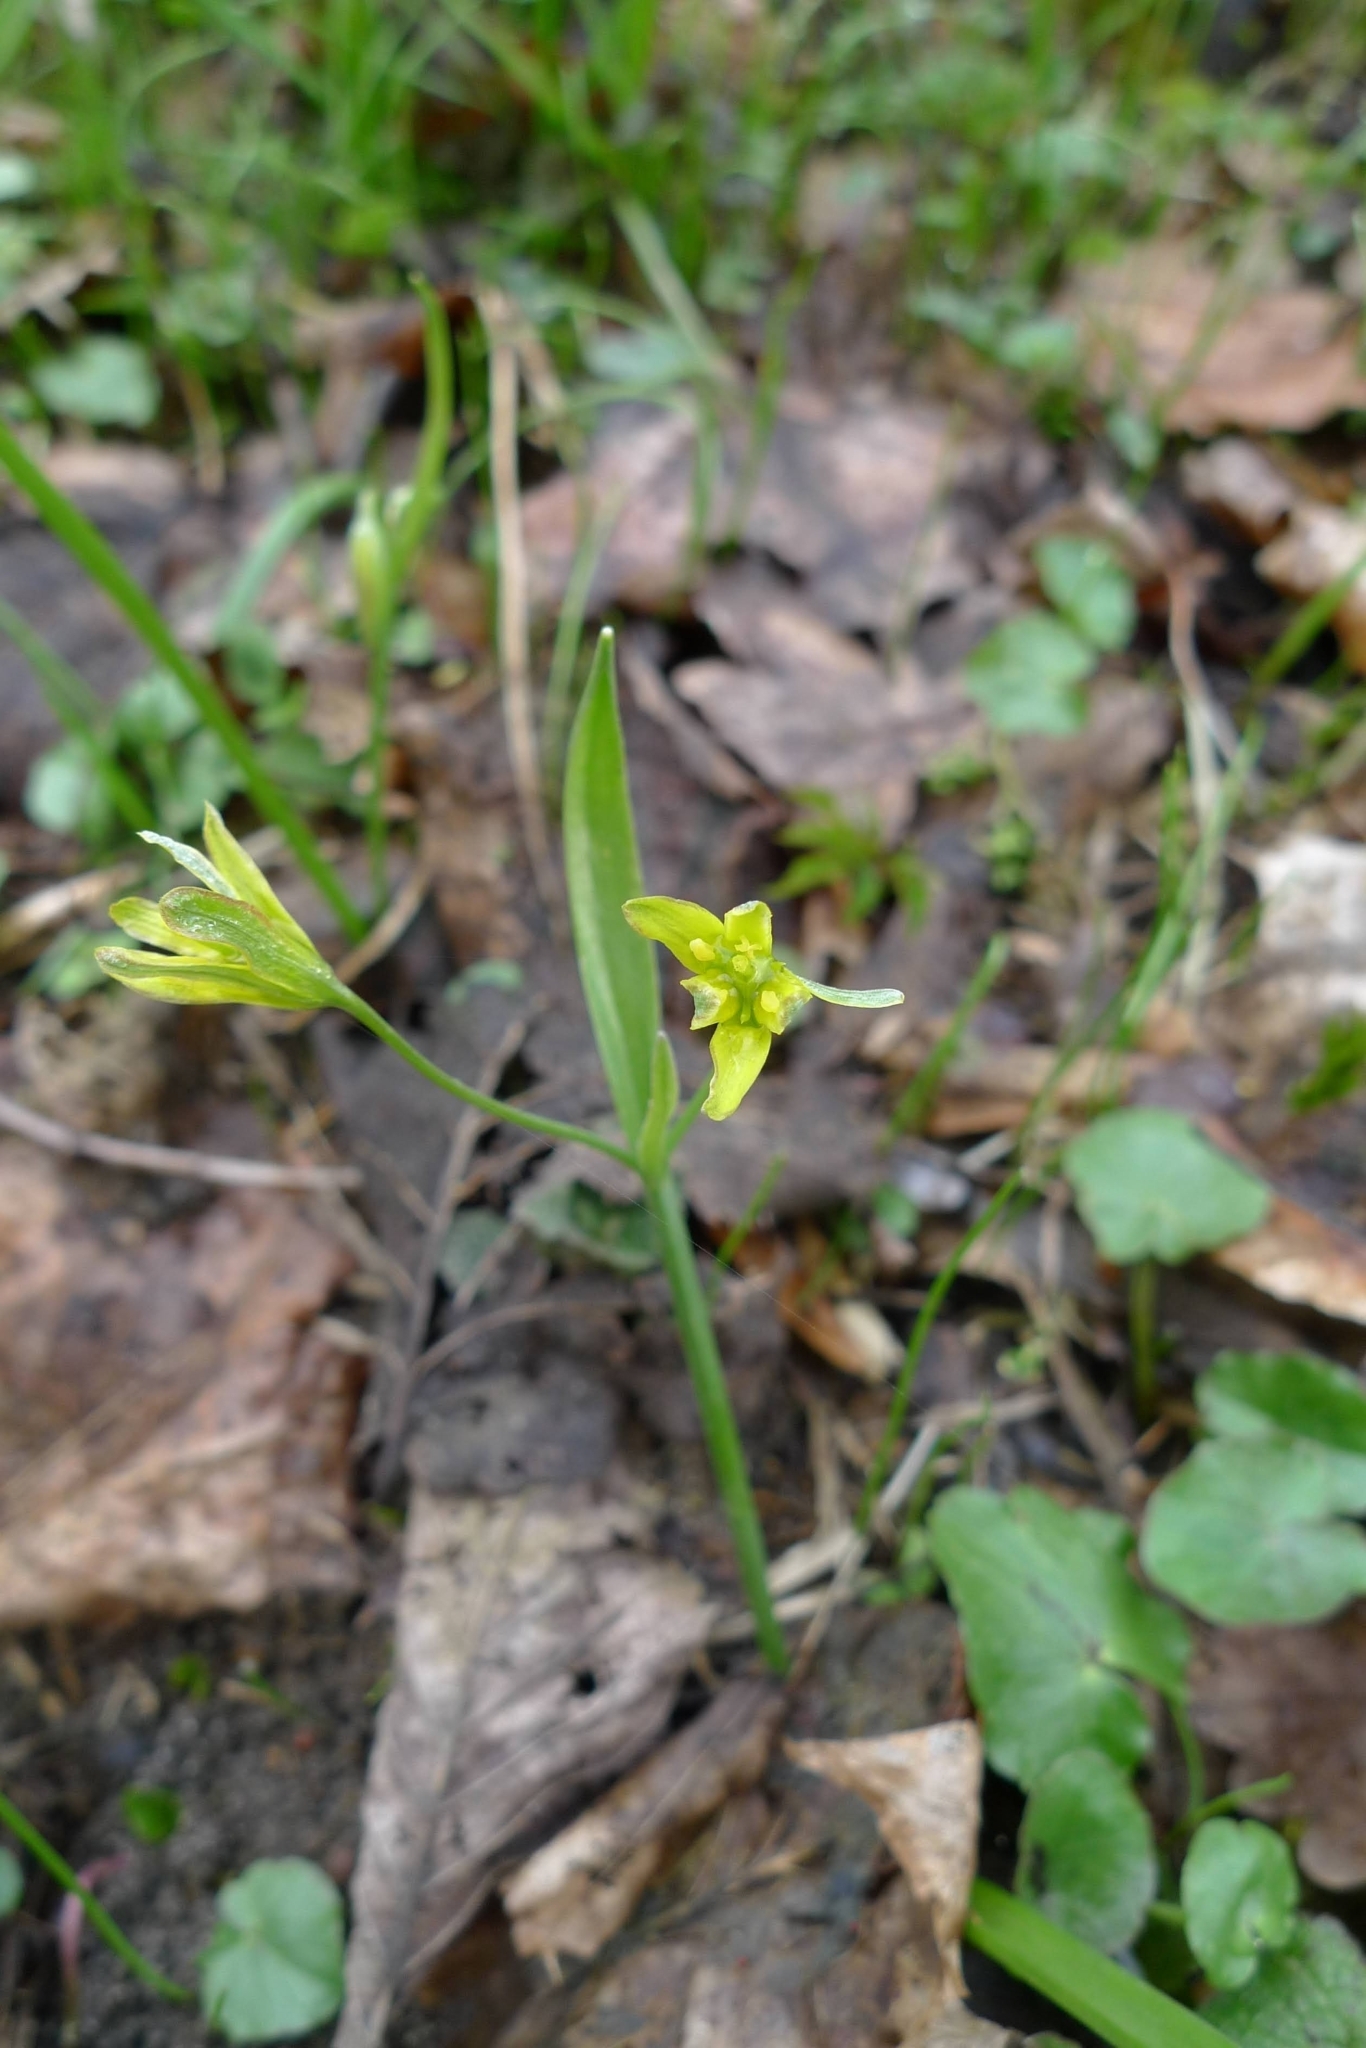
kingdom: Plantae
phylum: Tracheophyta
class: Liliopsida
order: Liliales
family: Liliaceae
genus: Gagea
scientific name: Gagea lutea
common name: Yellow star-of-bethlehem
